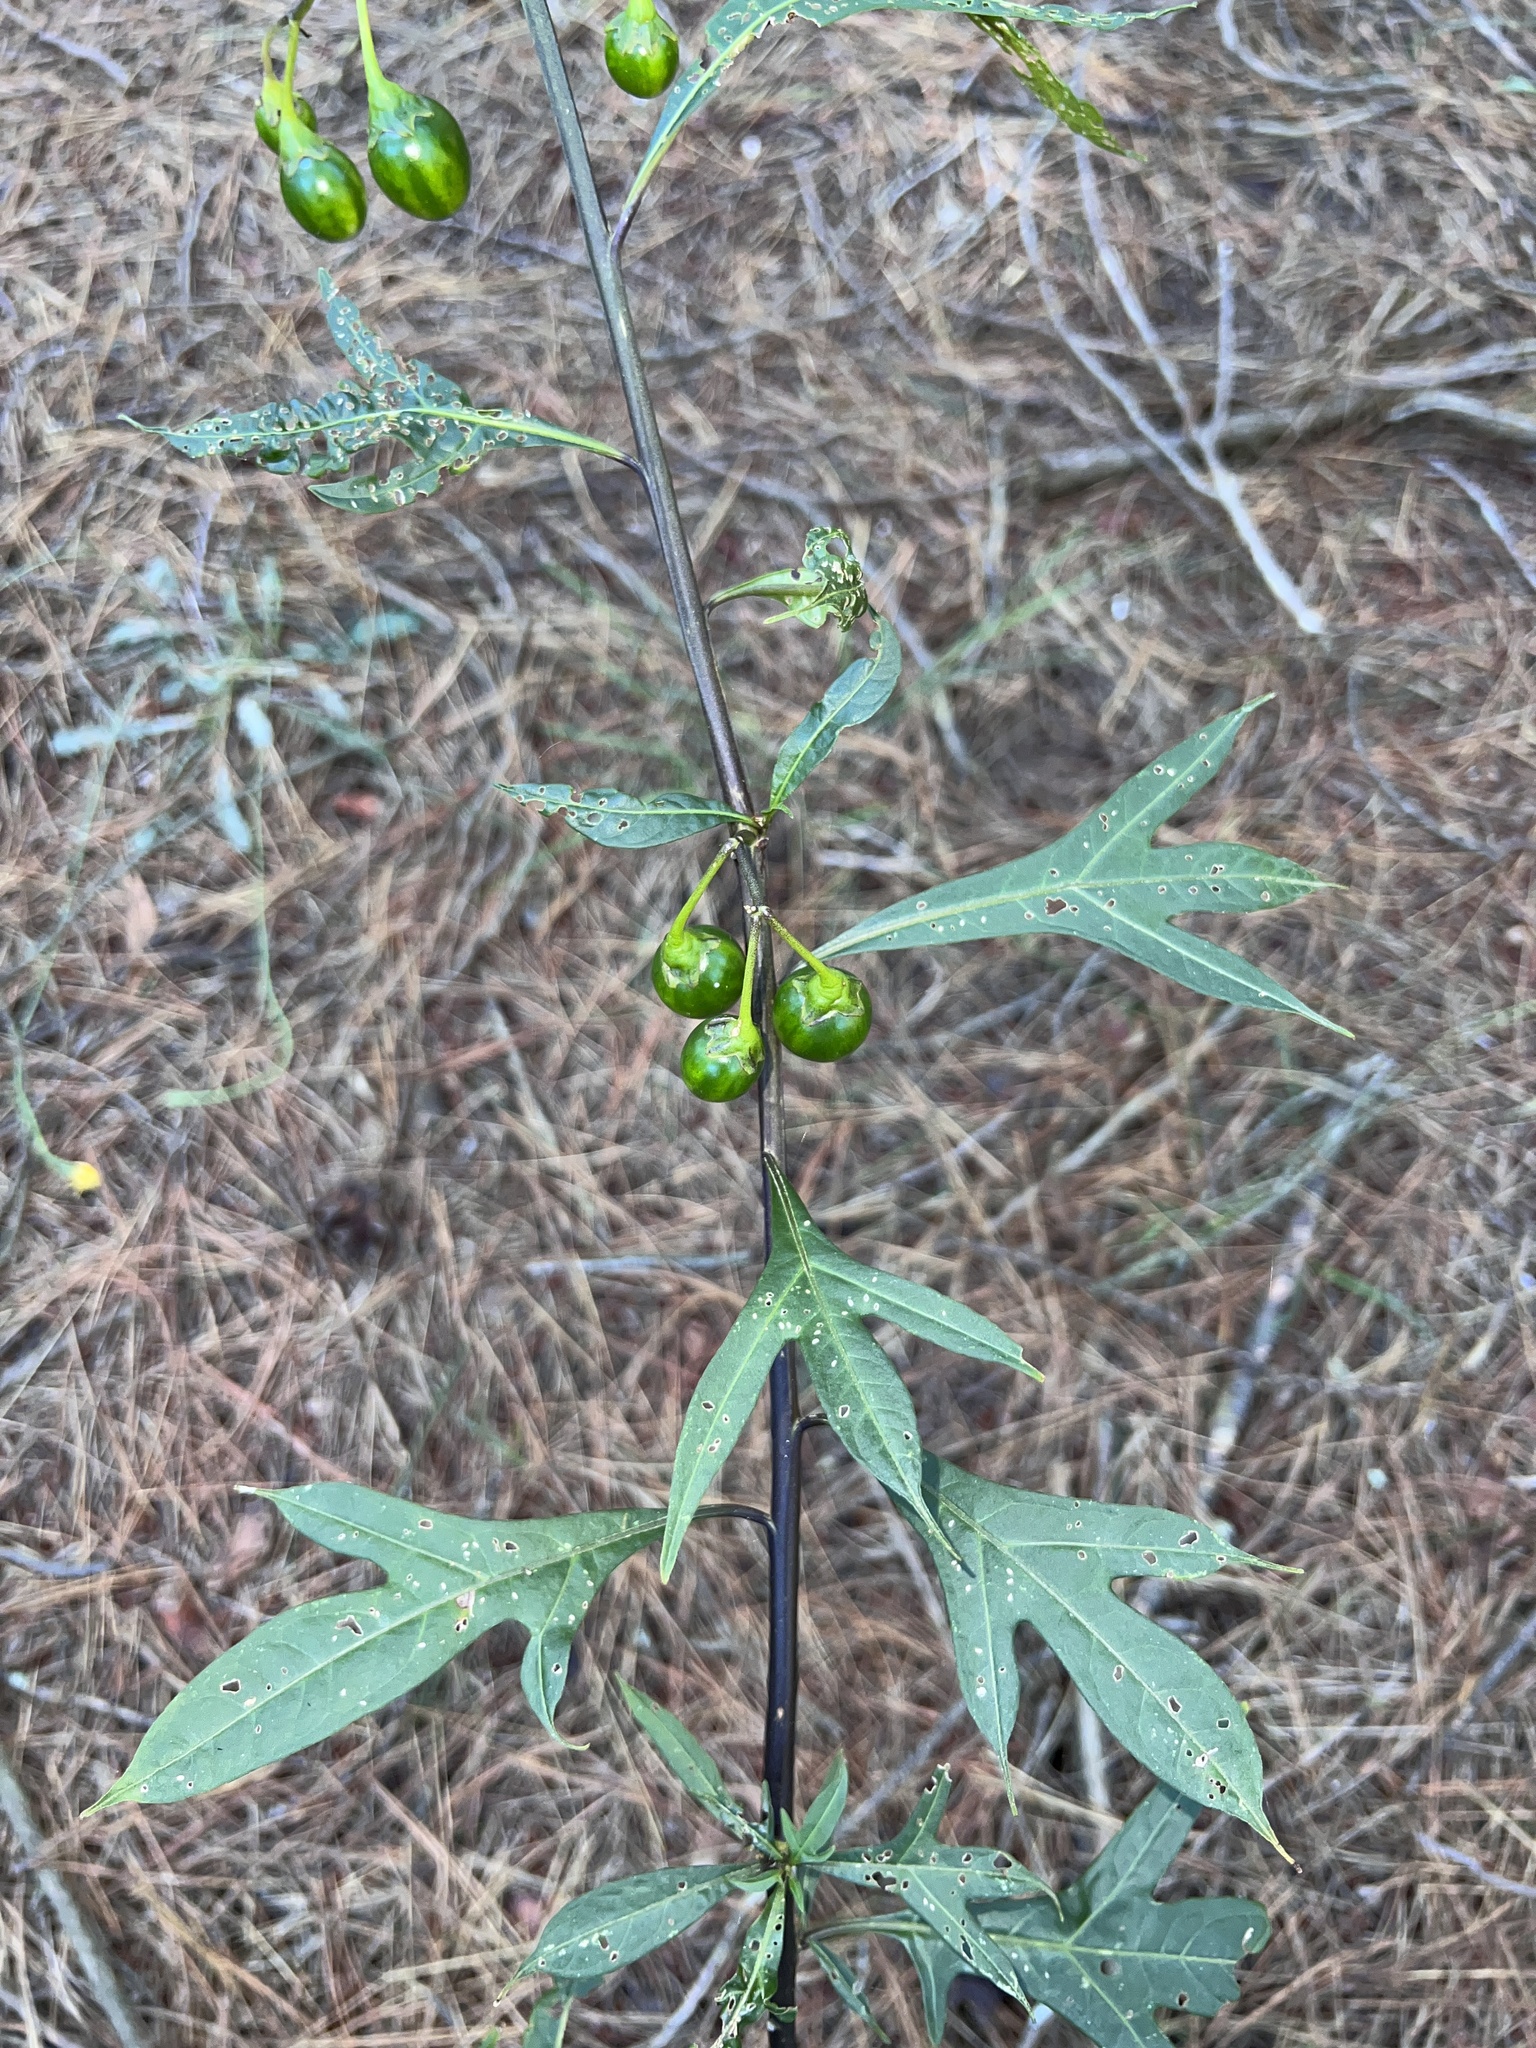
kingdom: Plantae
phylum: Tracheophyta
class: Magnoliopsida
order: Solanales
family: Solanaceae
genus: Solanum
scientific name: Solanum laciniatum
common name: Kangaroo-apple
